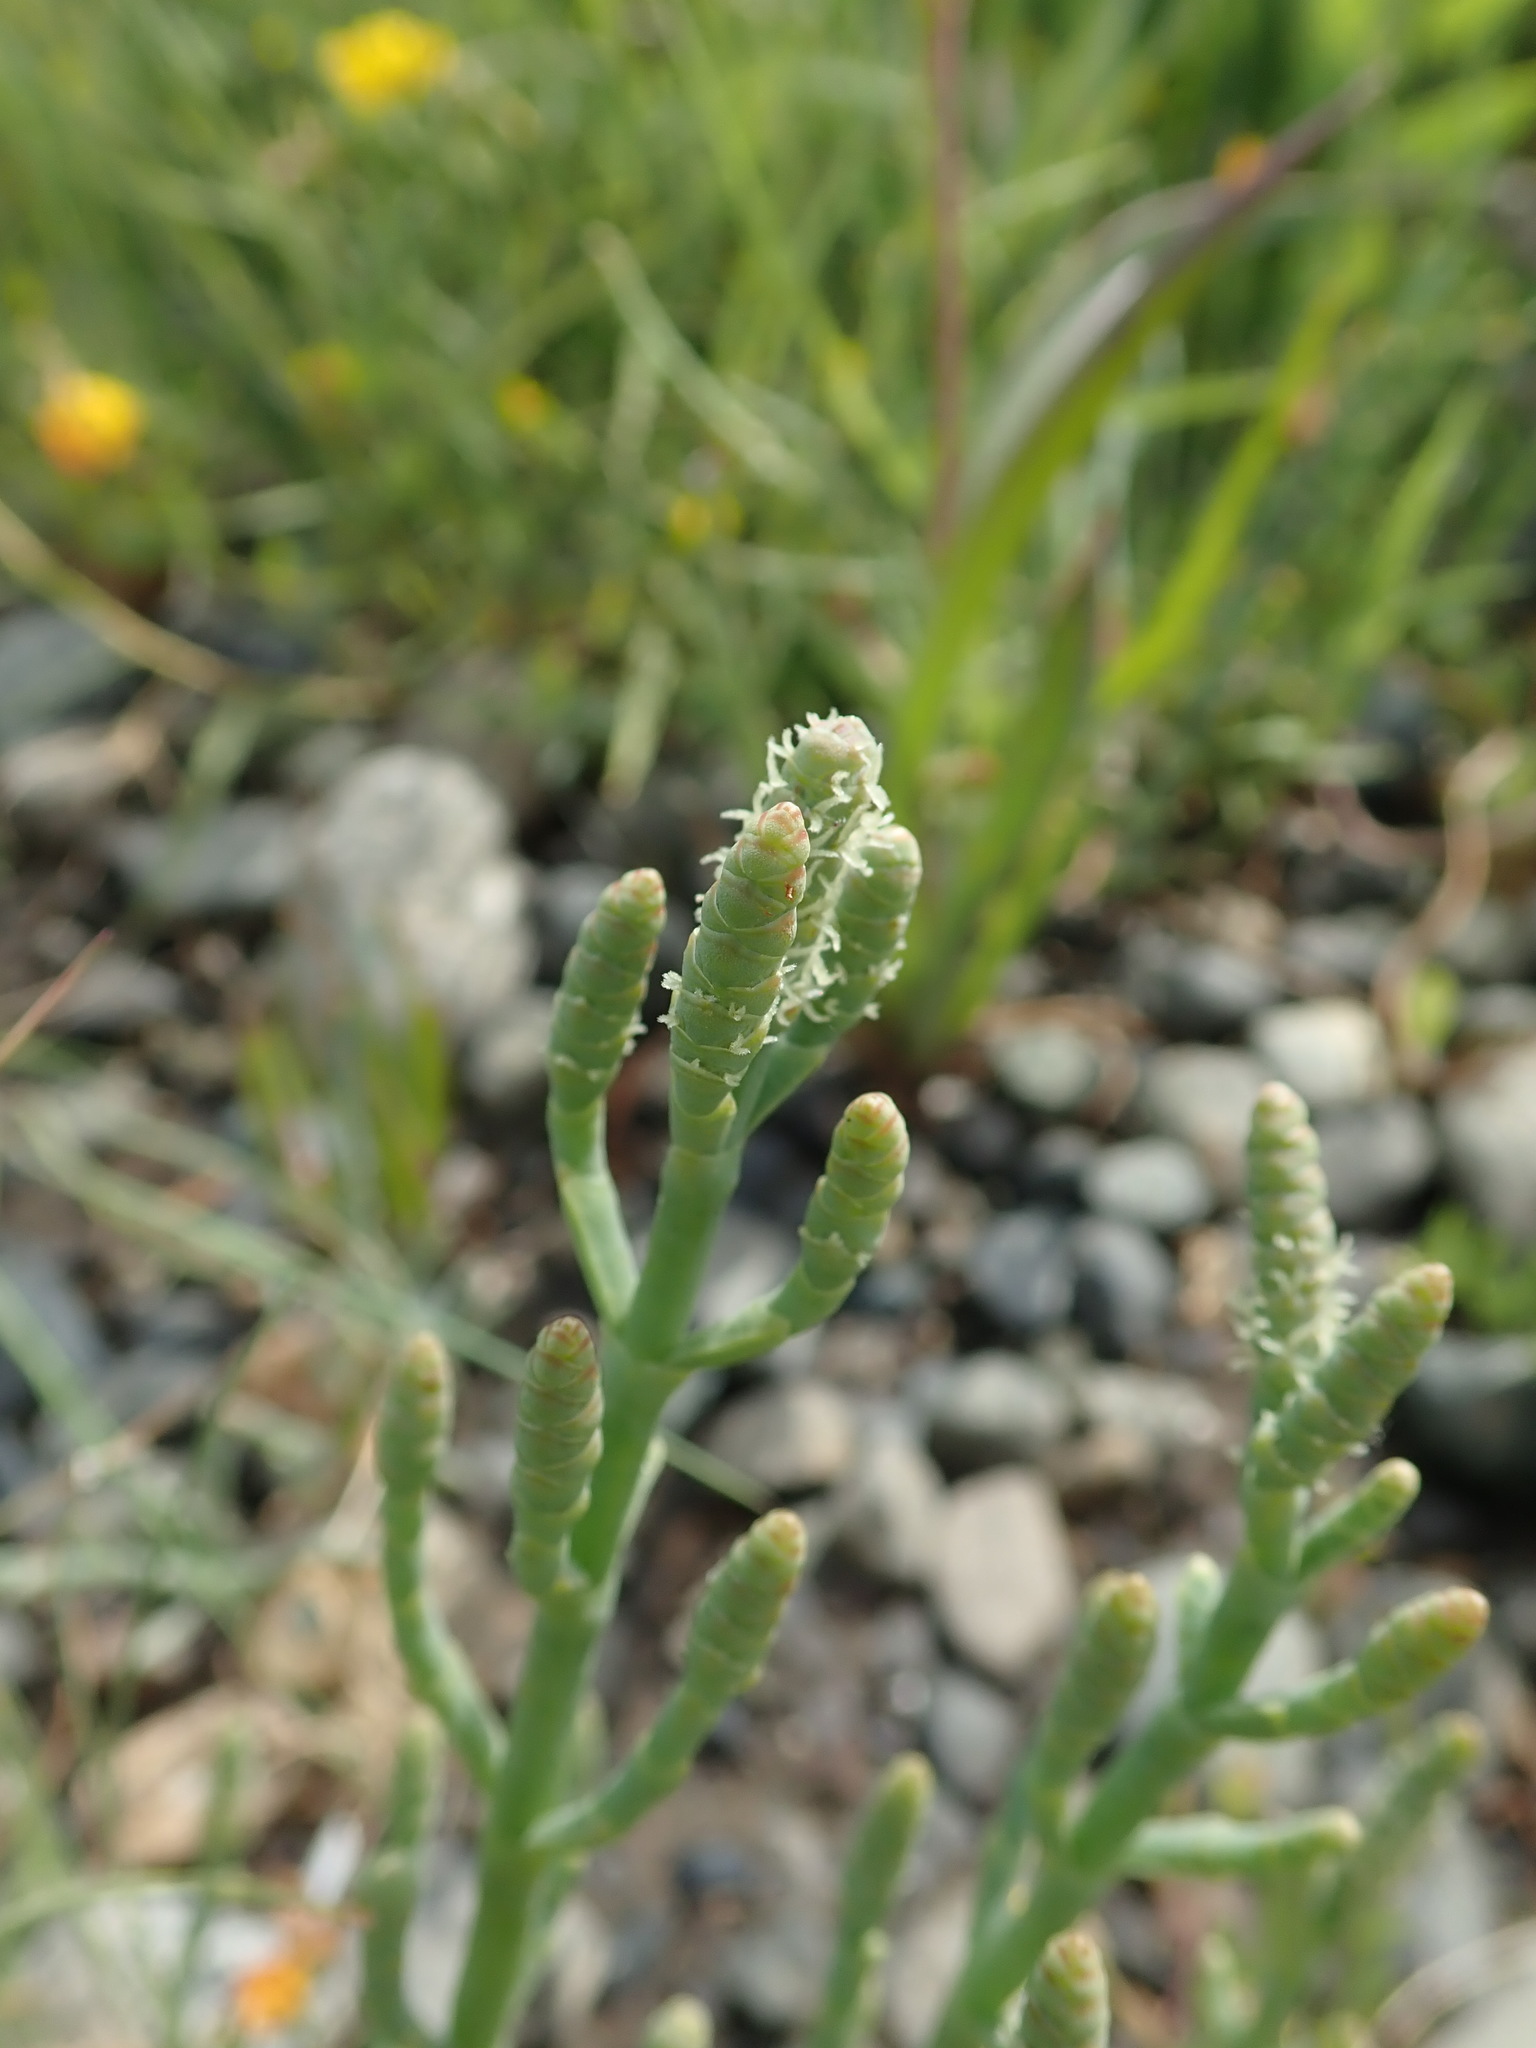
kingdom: Plantae
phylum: Tracheophyta
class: Magnoliopsida
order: Caryophyllales
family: Amaranthaceae
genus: Salicornia
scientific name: Salicornia pacifica
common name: Pacific glasswort
